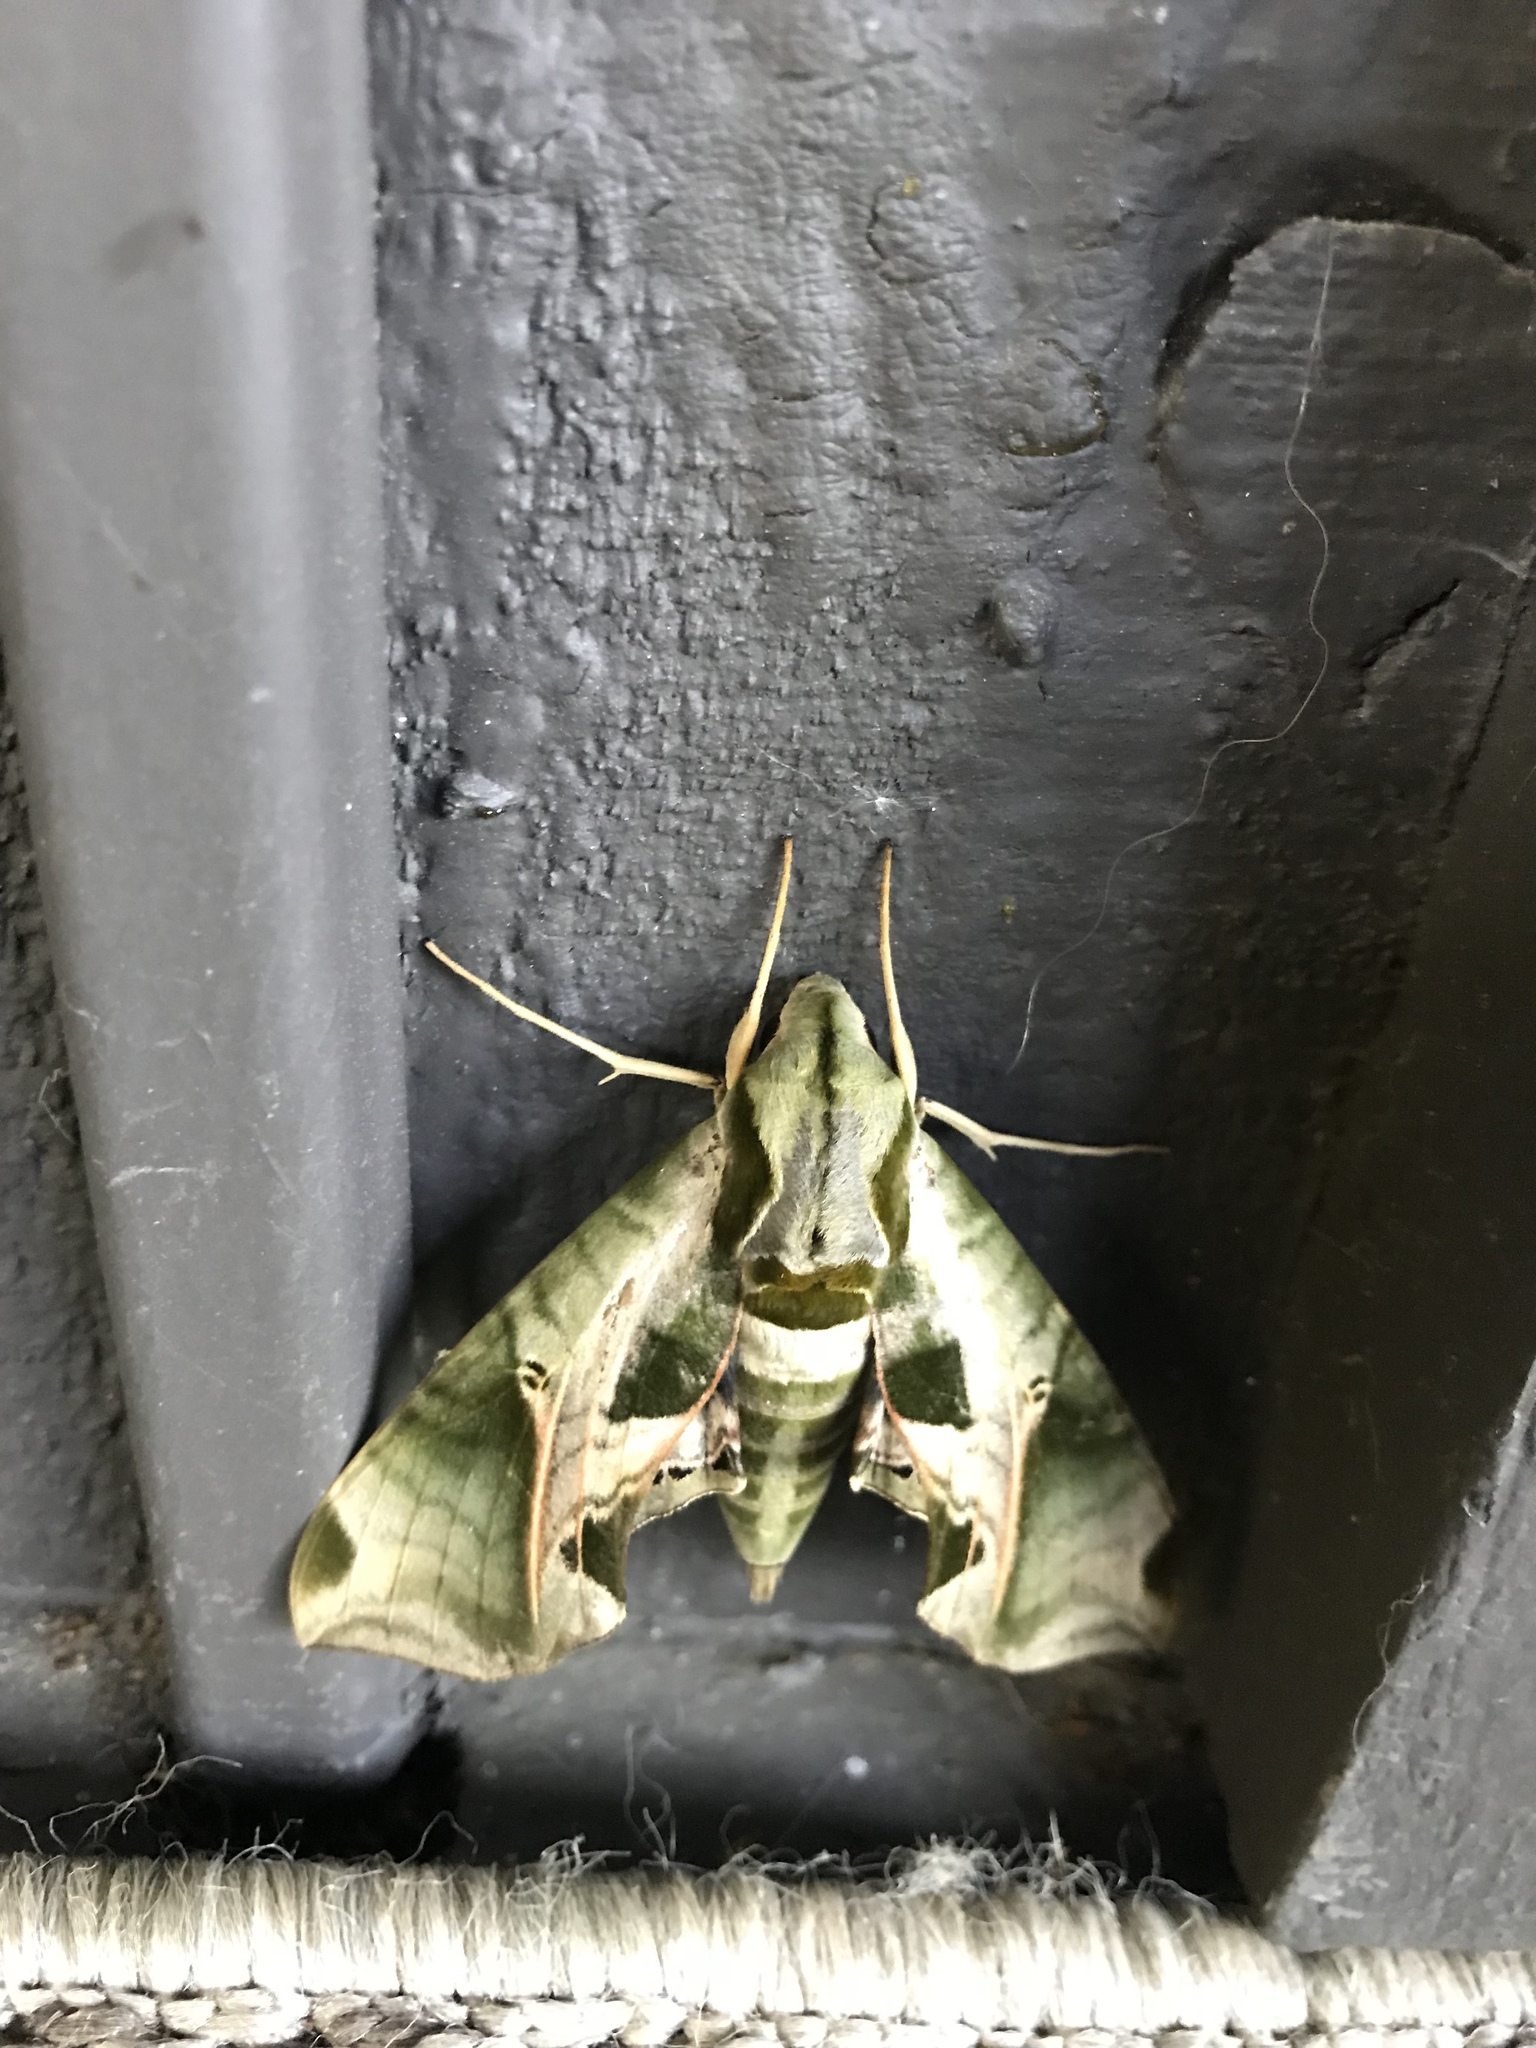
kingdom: Animalia
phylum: Arthropoda
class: Insecta
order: Lepidoptera
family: Sphingidae
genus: Eumorpha
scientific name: Eumorpha pandorus
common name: Pandora sphinx
